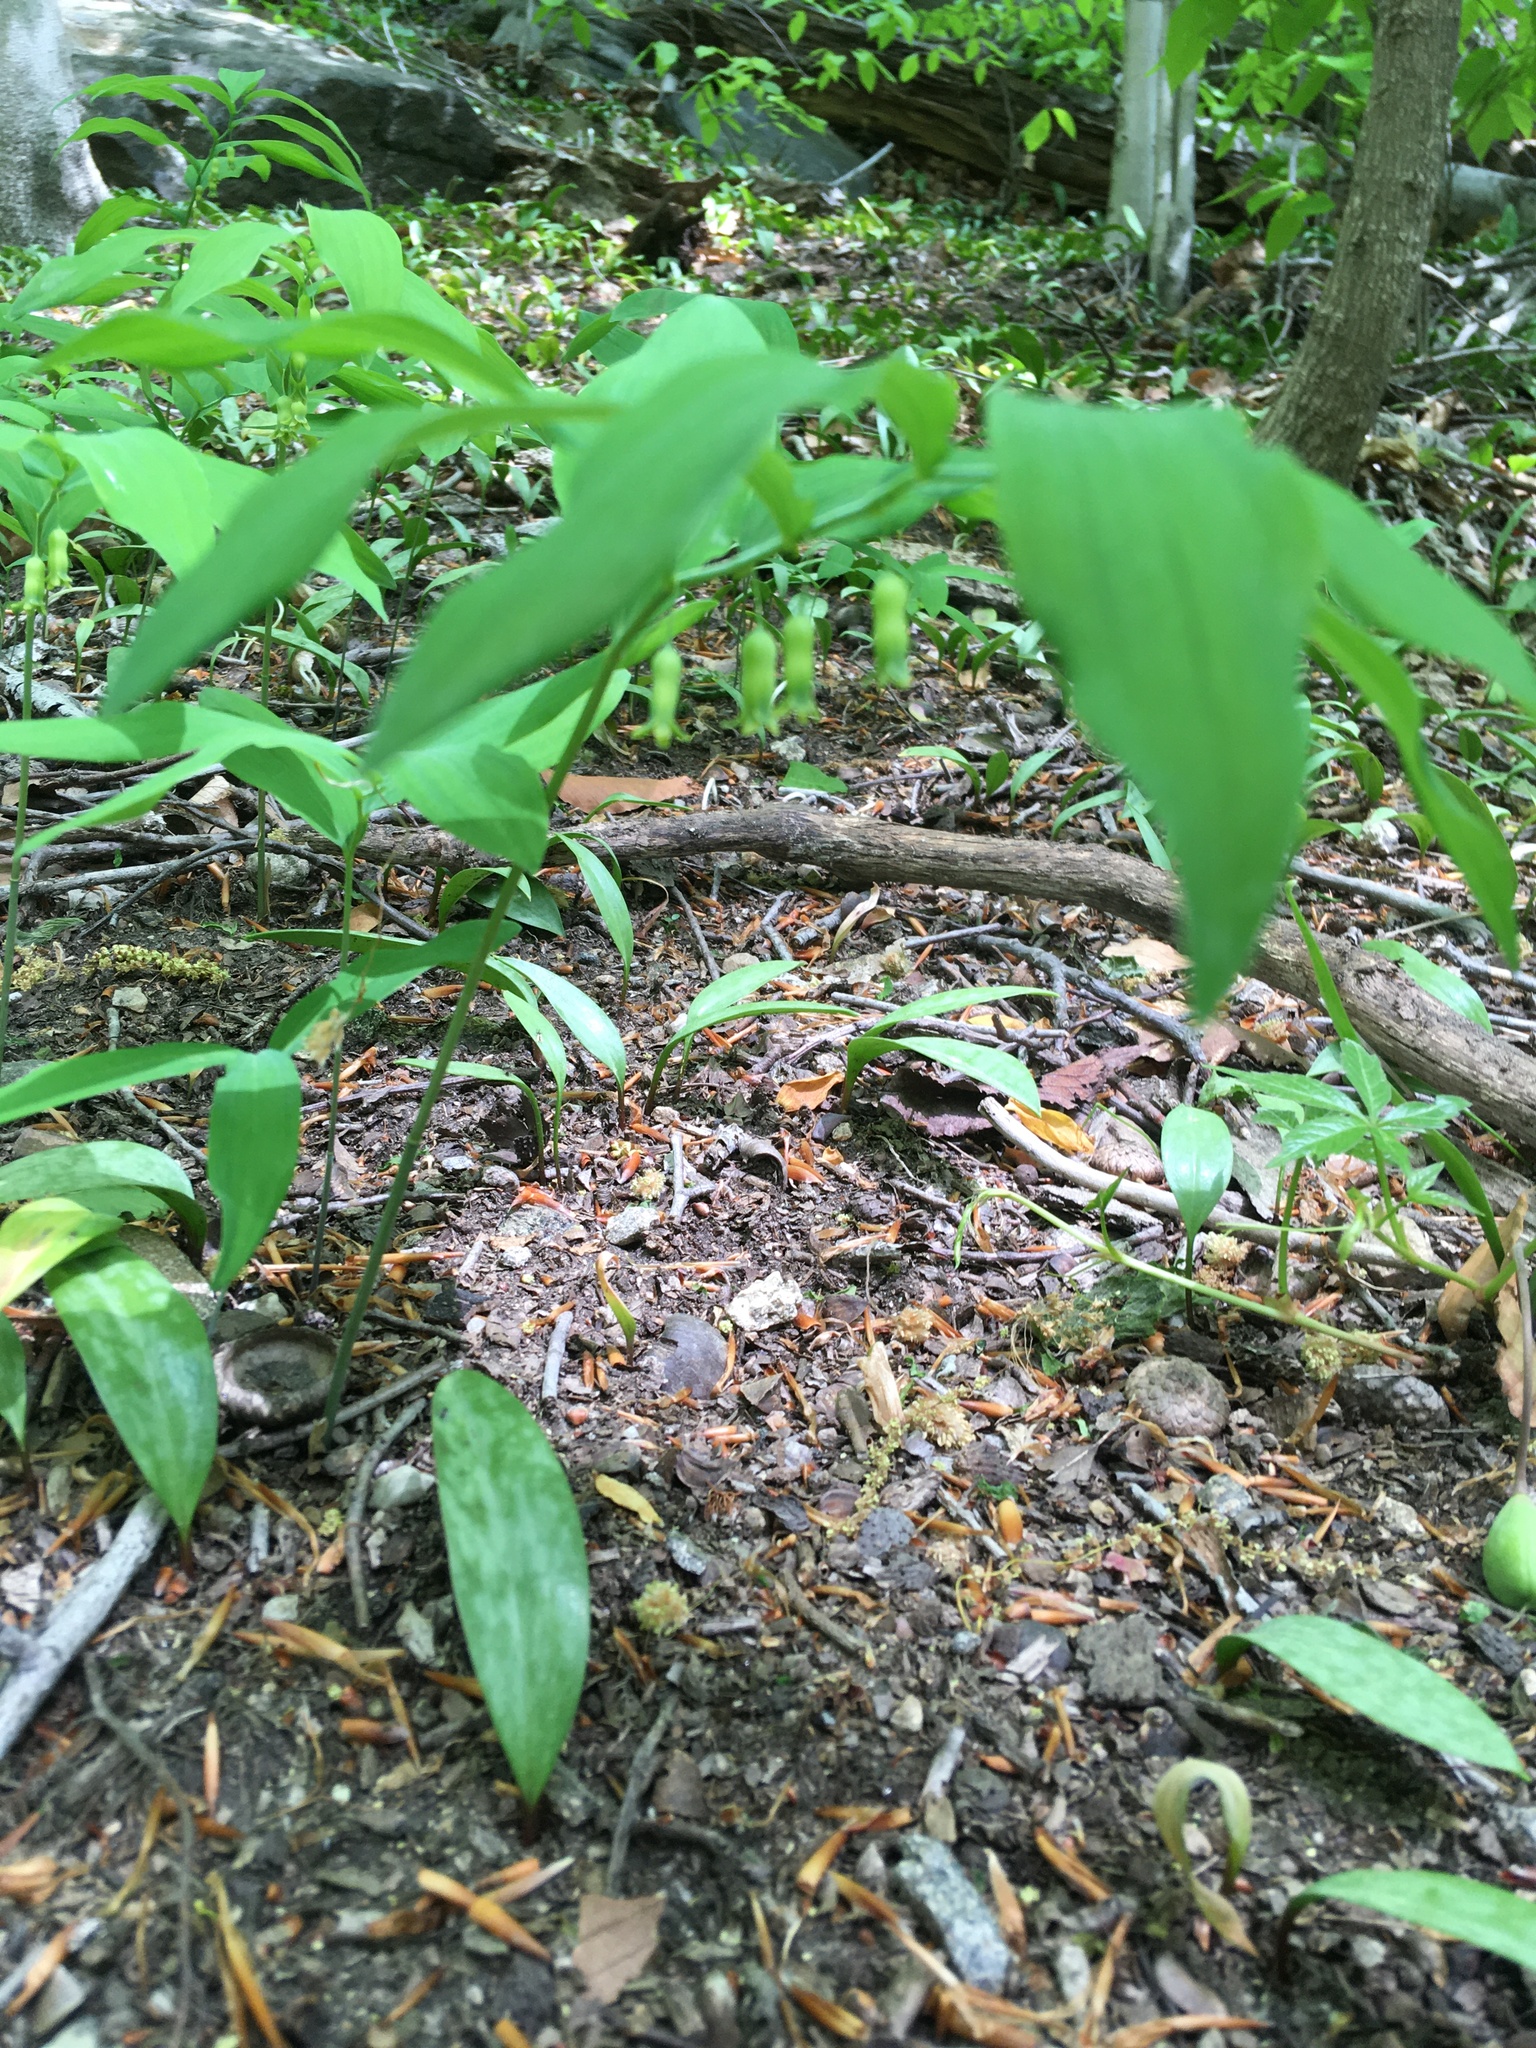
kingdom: Plantae
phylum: Tracheophyta
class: Liliopsida
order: Asparagales
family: Asparagaceae
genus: Polygonatum
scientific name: Polygonatum pubescens
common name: Downy solomon's seal
